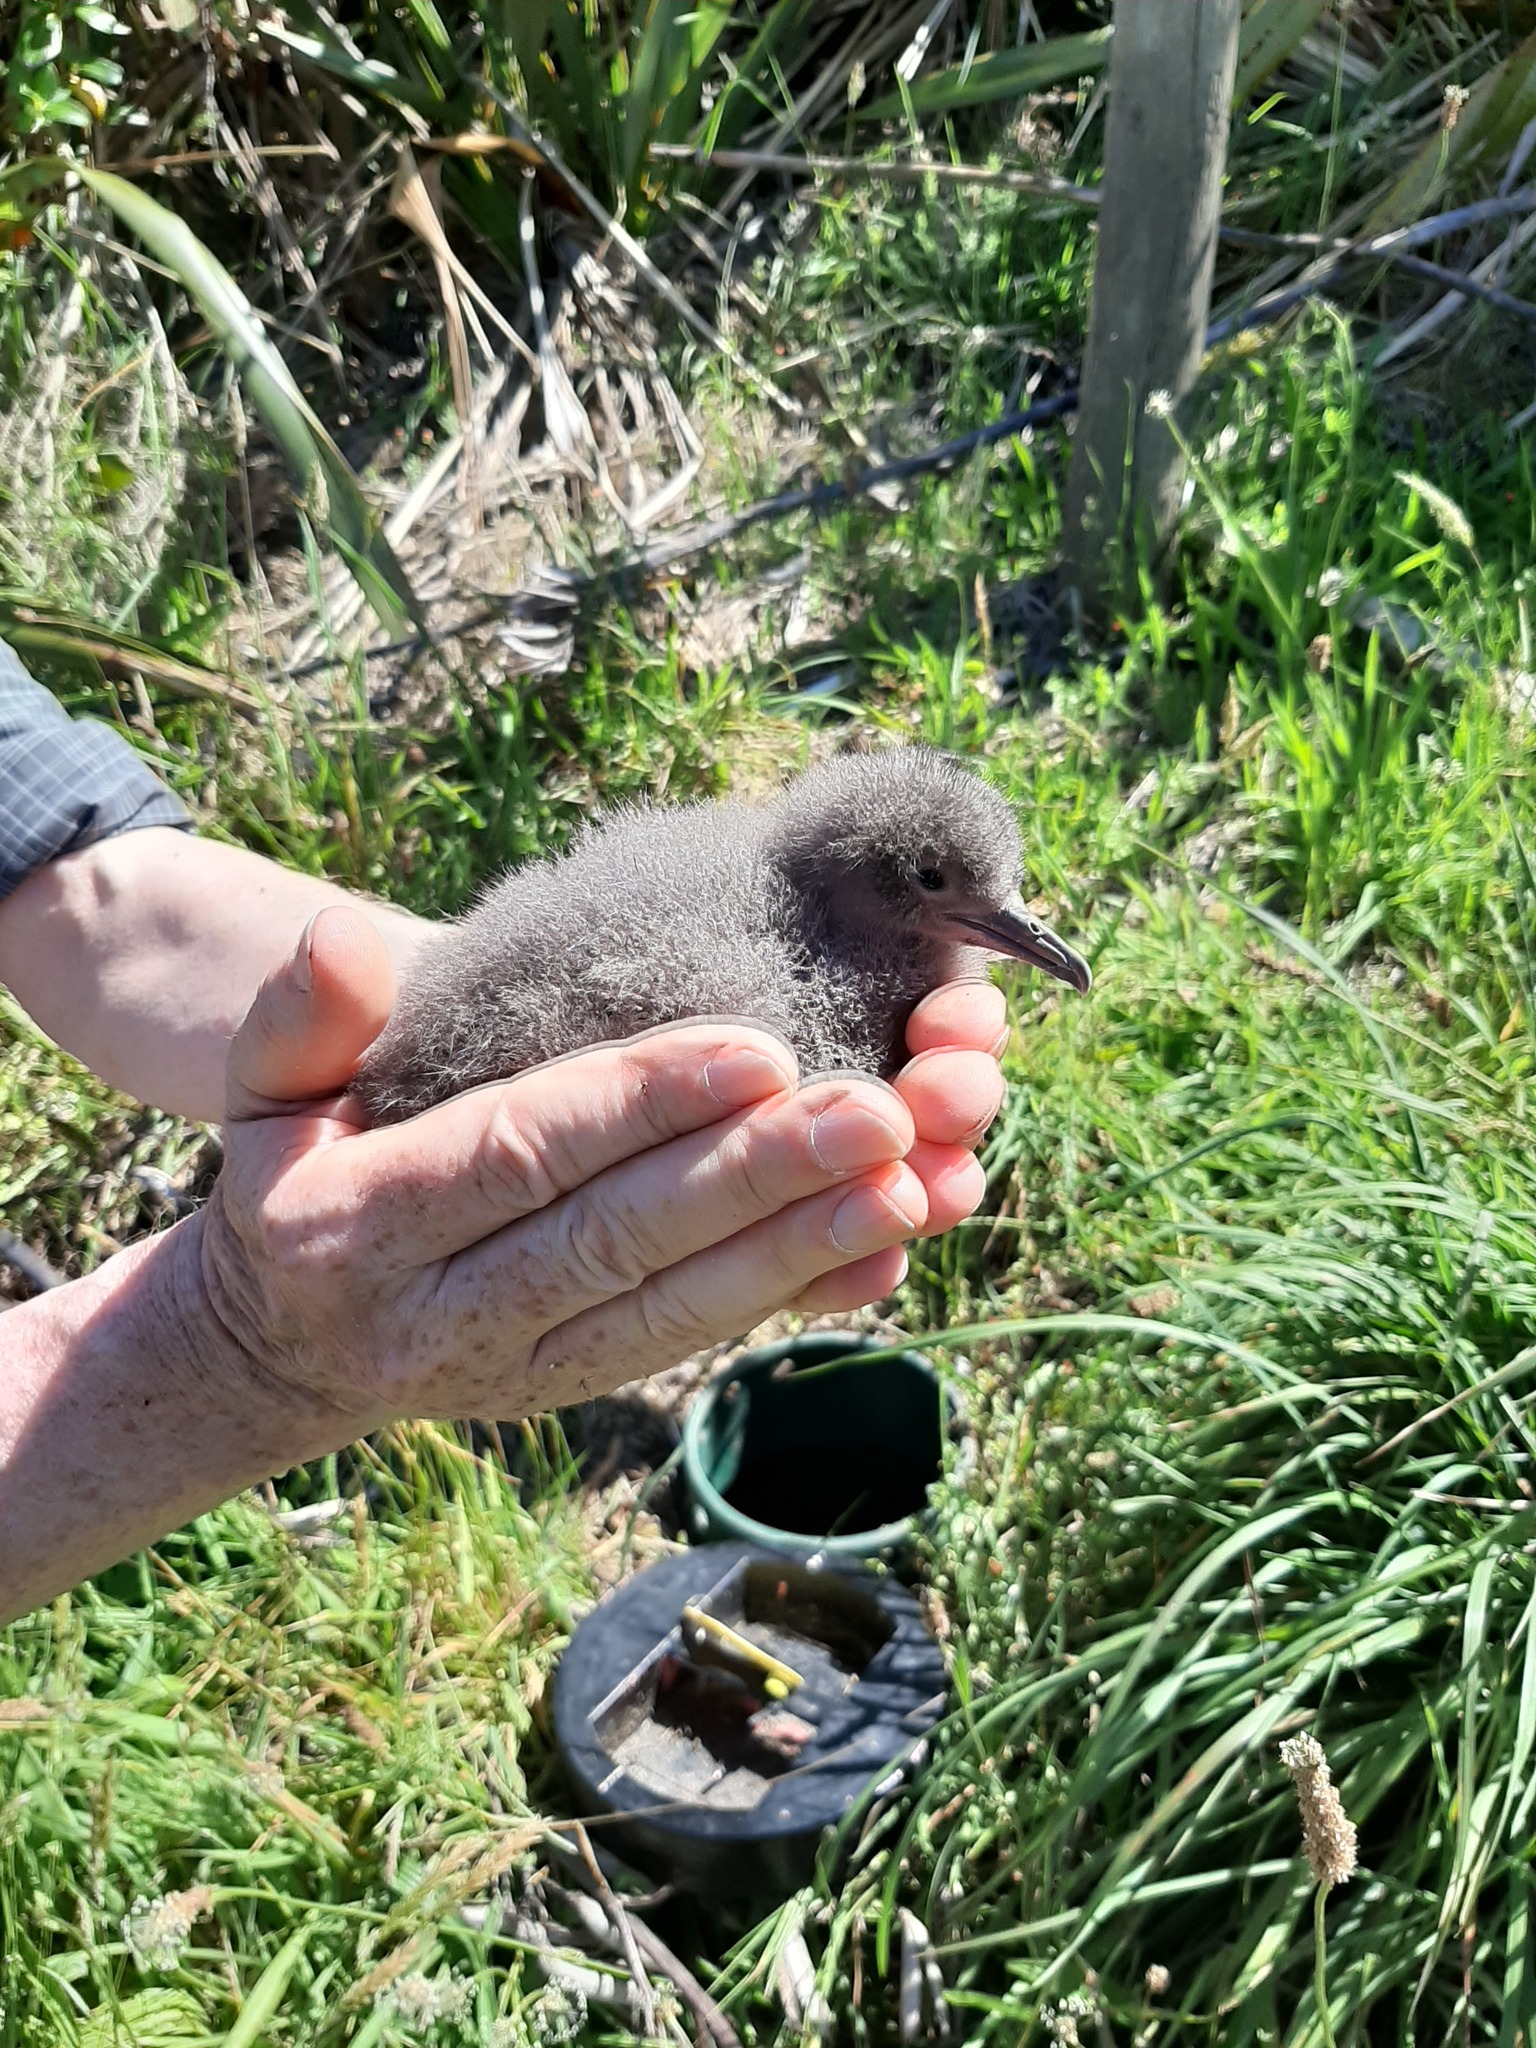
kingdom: Animalia
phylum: Chordata
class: Aves
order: Procellariiformes
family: Procellariidae
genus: Puffinus
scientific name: Puffinus gavia
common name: Fluttering shearwater
